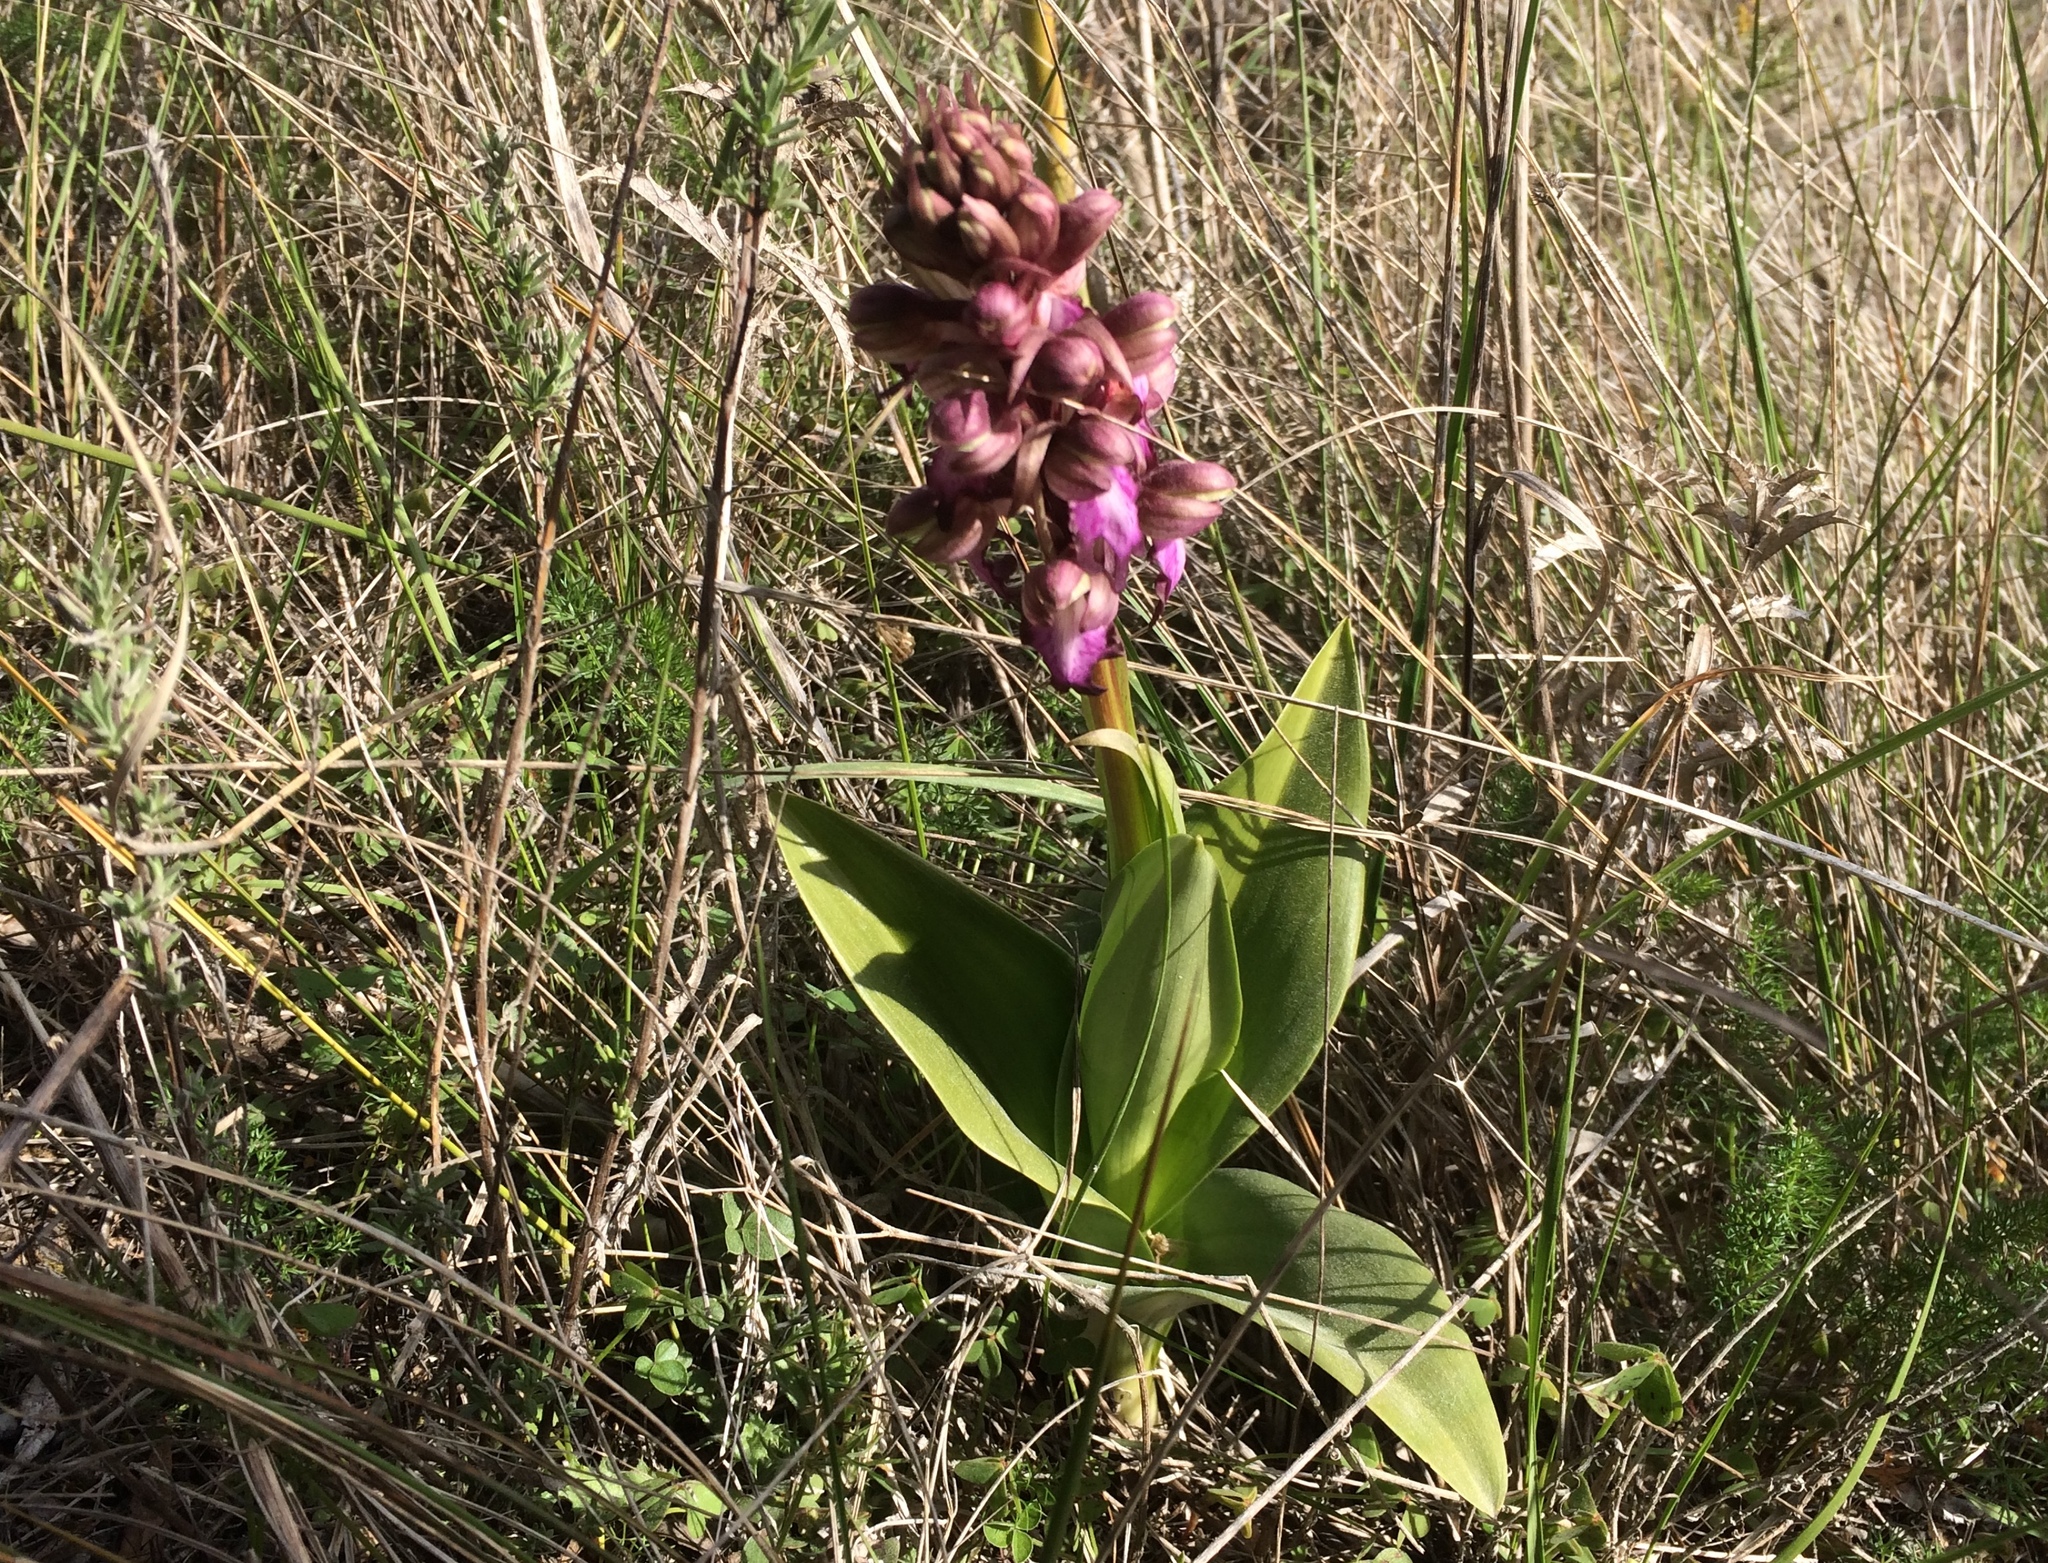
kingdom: Plantae
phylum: Tracheophyta
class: Liliopsida
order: Asparagales
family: Orchidaceae
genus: Himantoglossum
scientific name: Himantoglossum robertianum
